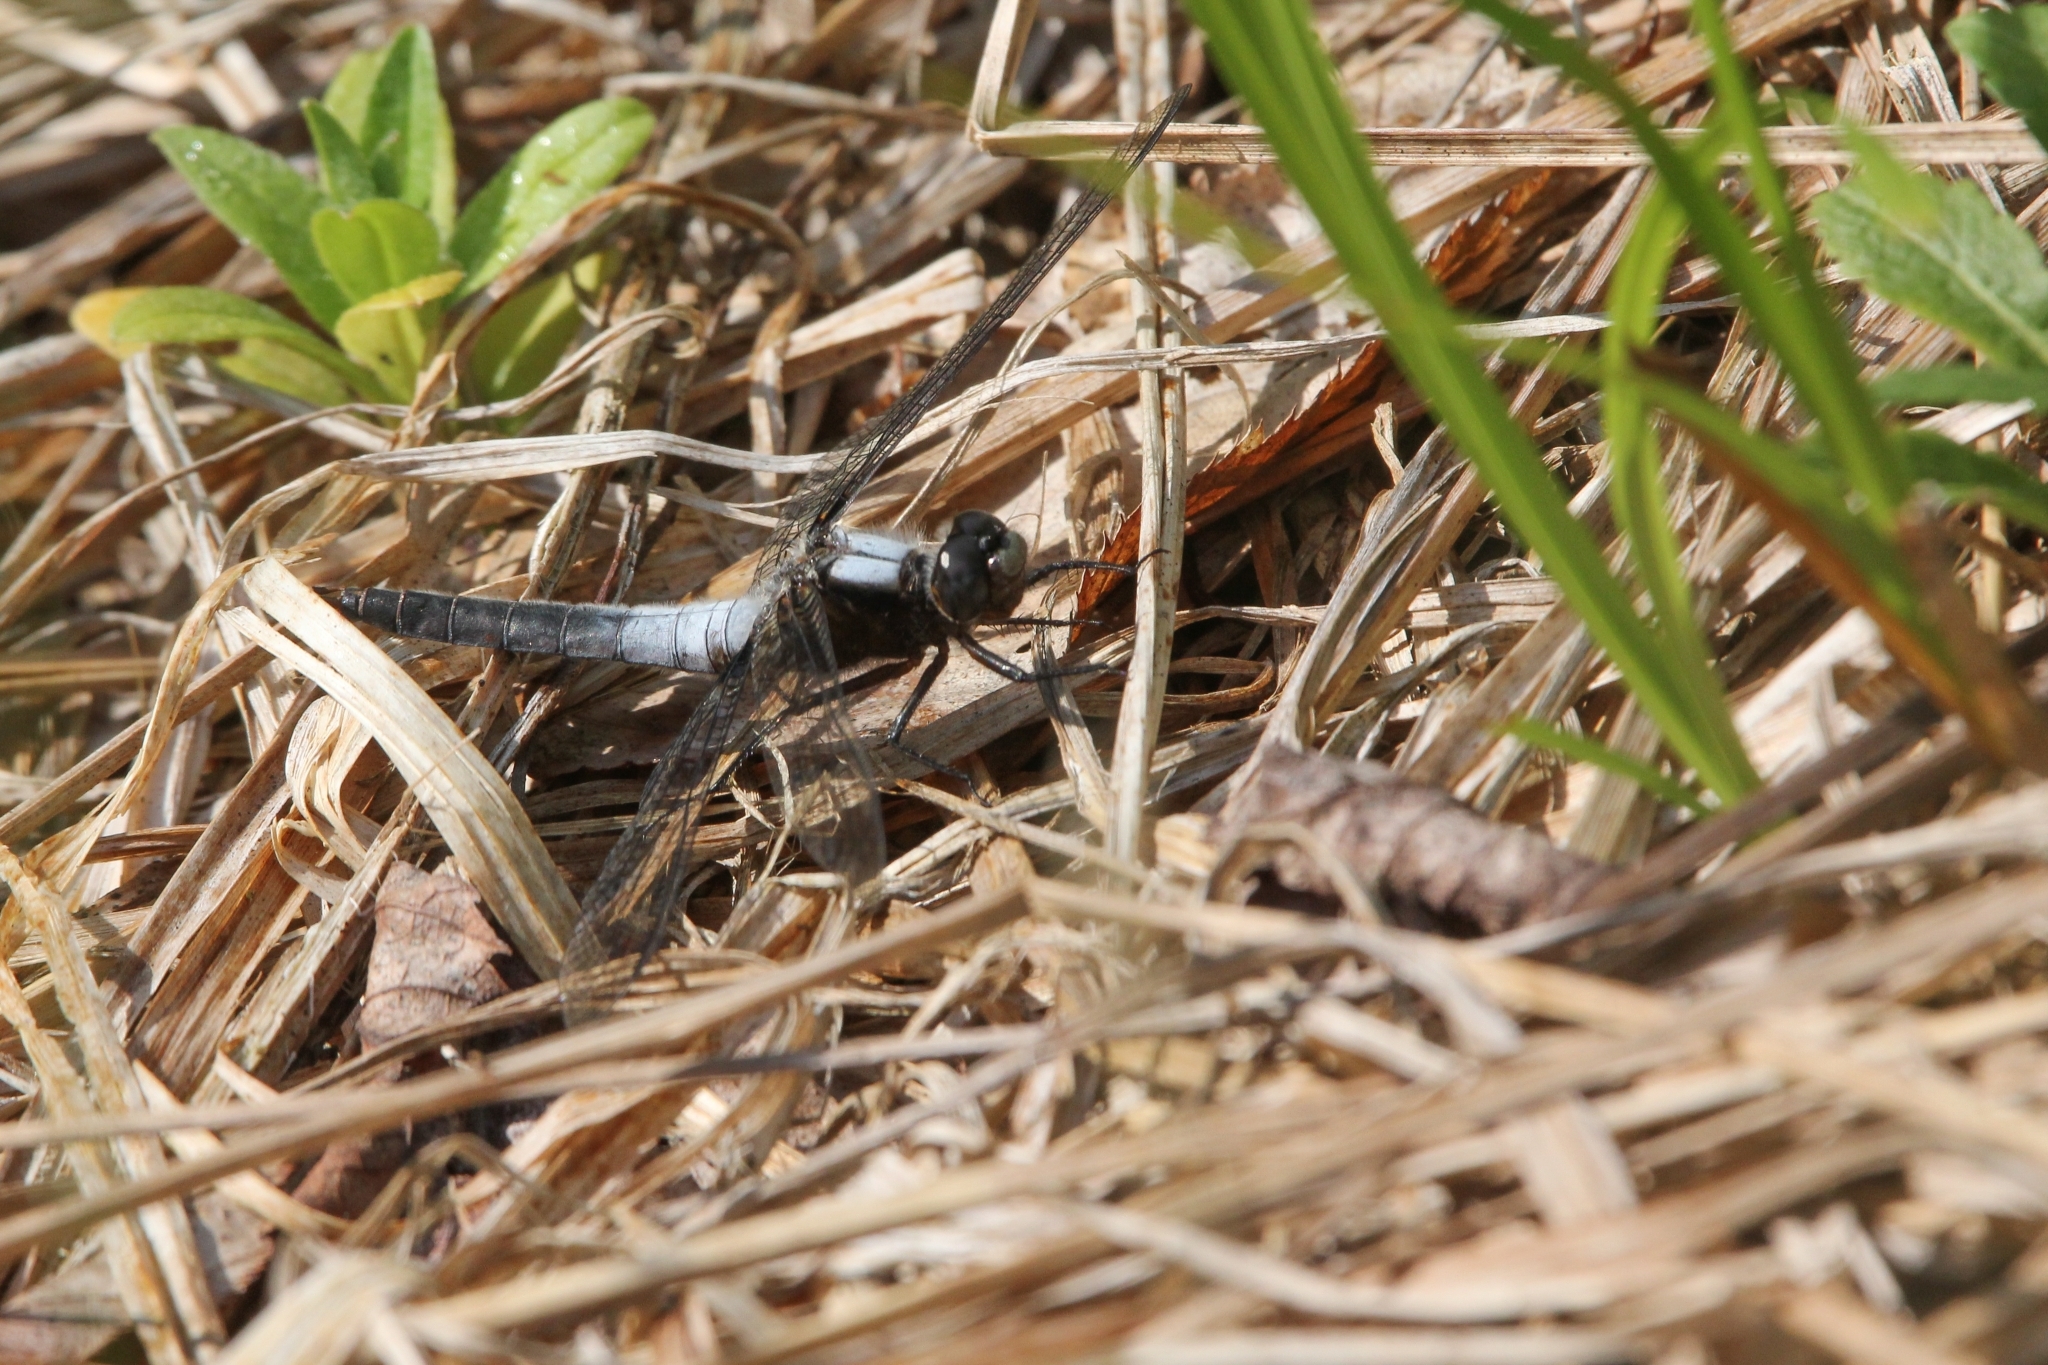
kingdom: Animalia
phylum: Arthropoda
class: Insecta
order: Odonata
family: Libellulidae
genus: Ladona
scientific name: Ladona julia
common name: Chalk-fronted corporal
